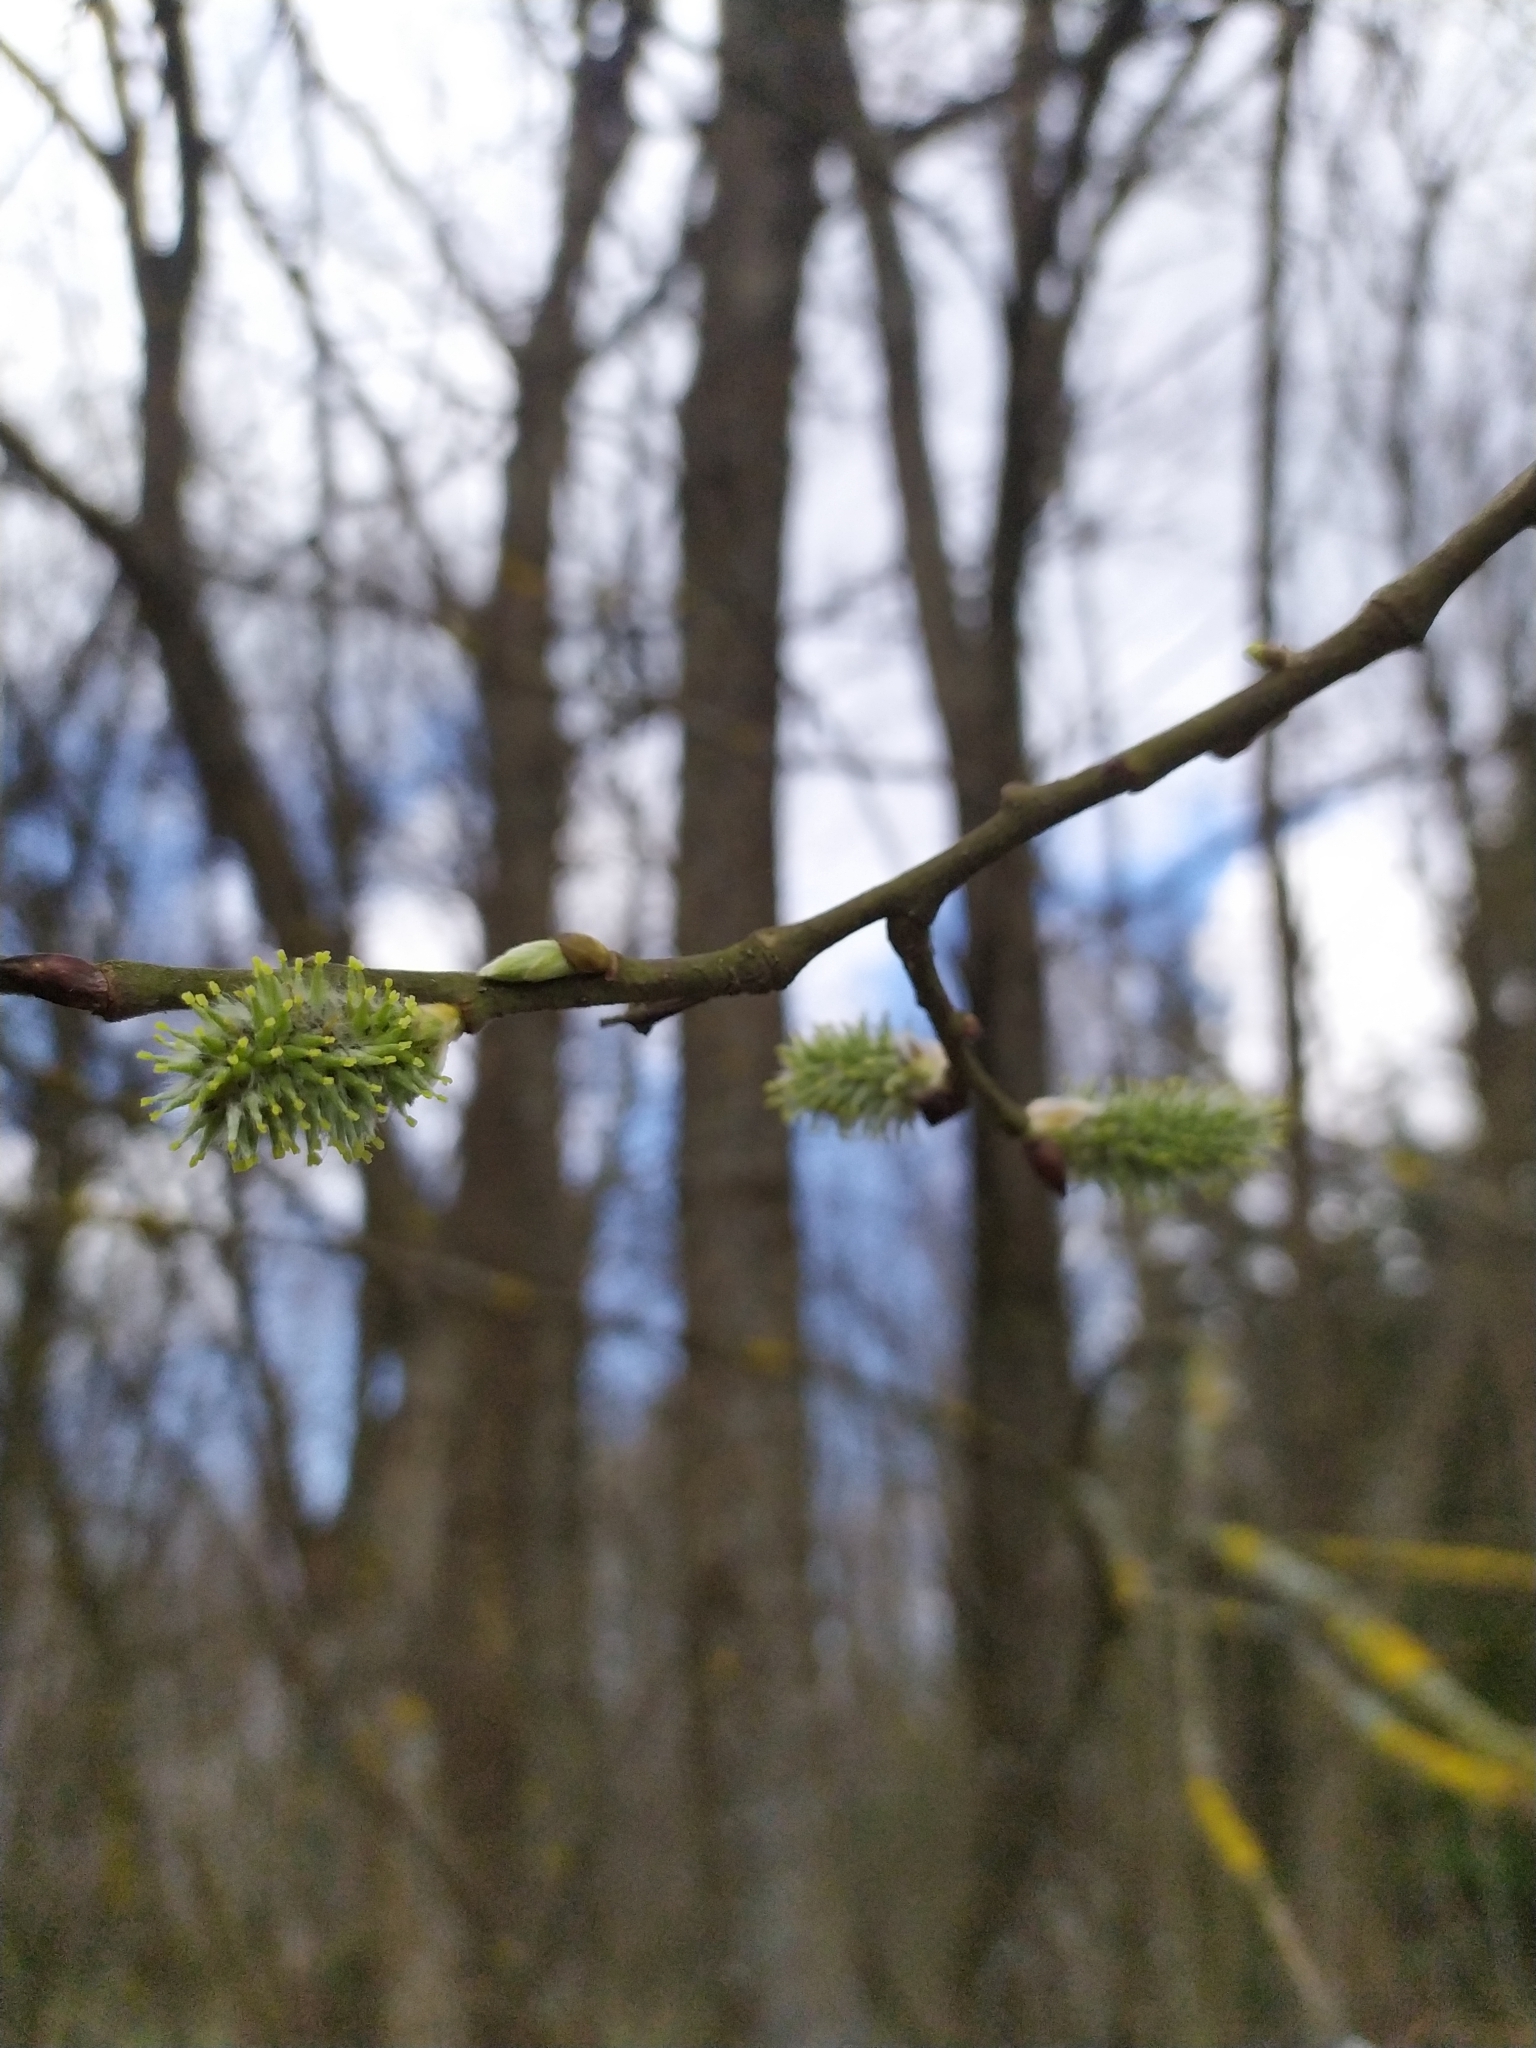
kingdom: Plantae
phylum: Tracheophyta
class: Magnoliopsida
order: Malpighiales
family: Salicaceae
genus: Salix
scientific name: Salix caprea
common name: Goat willow
